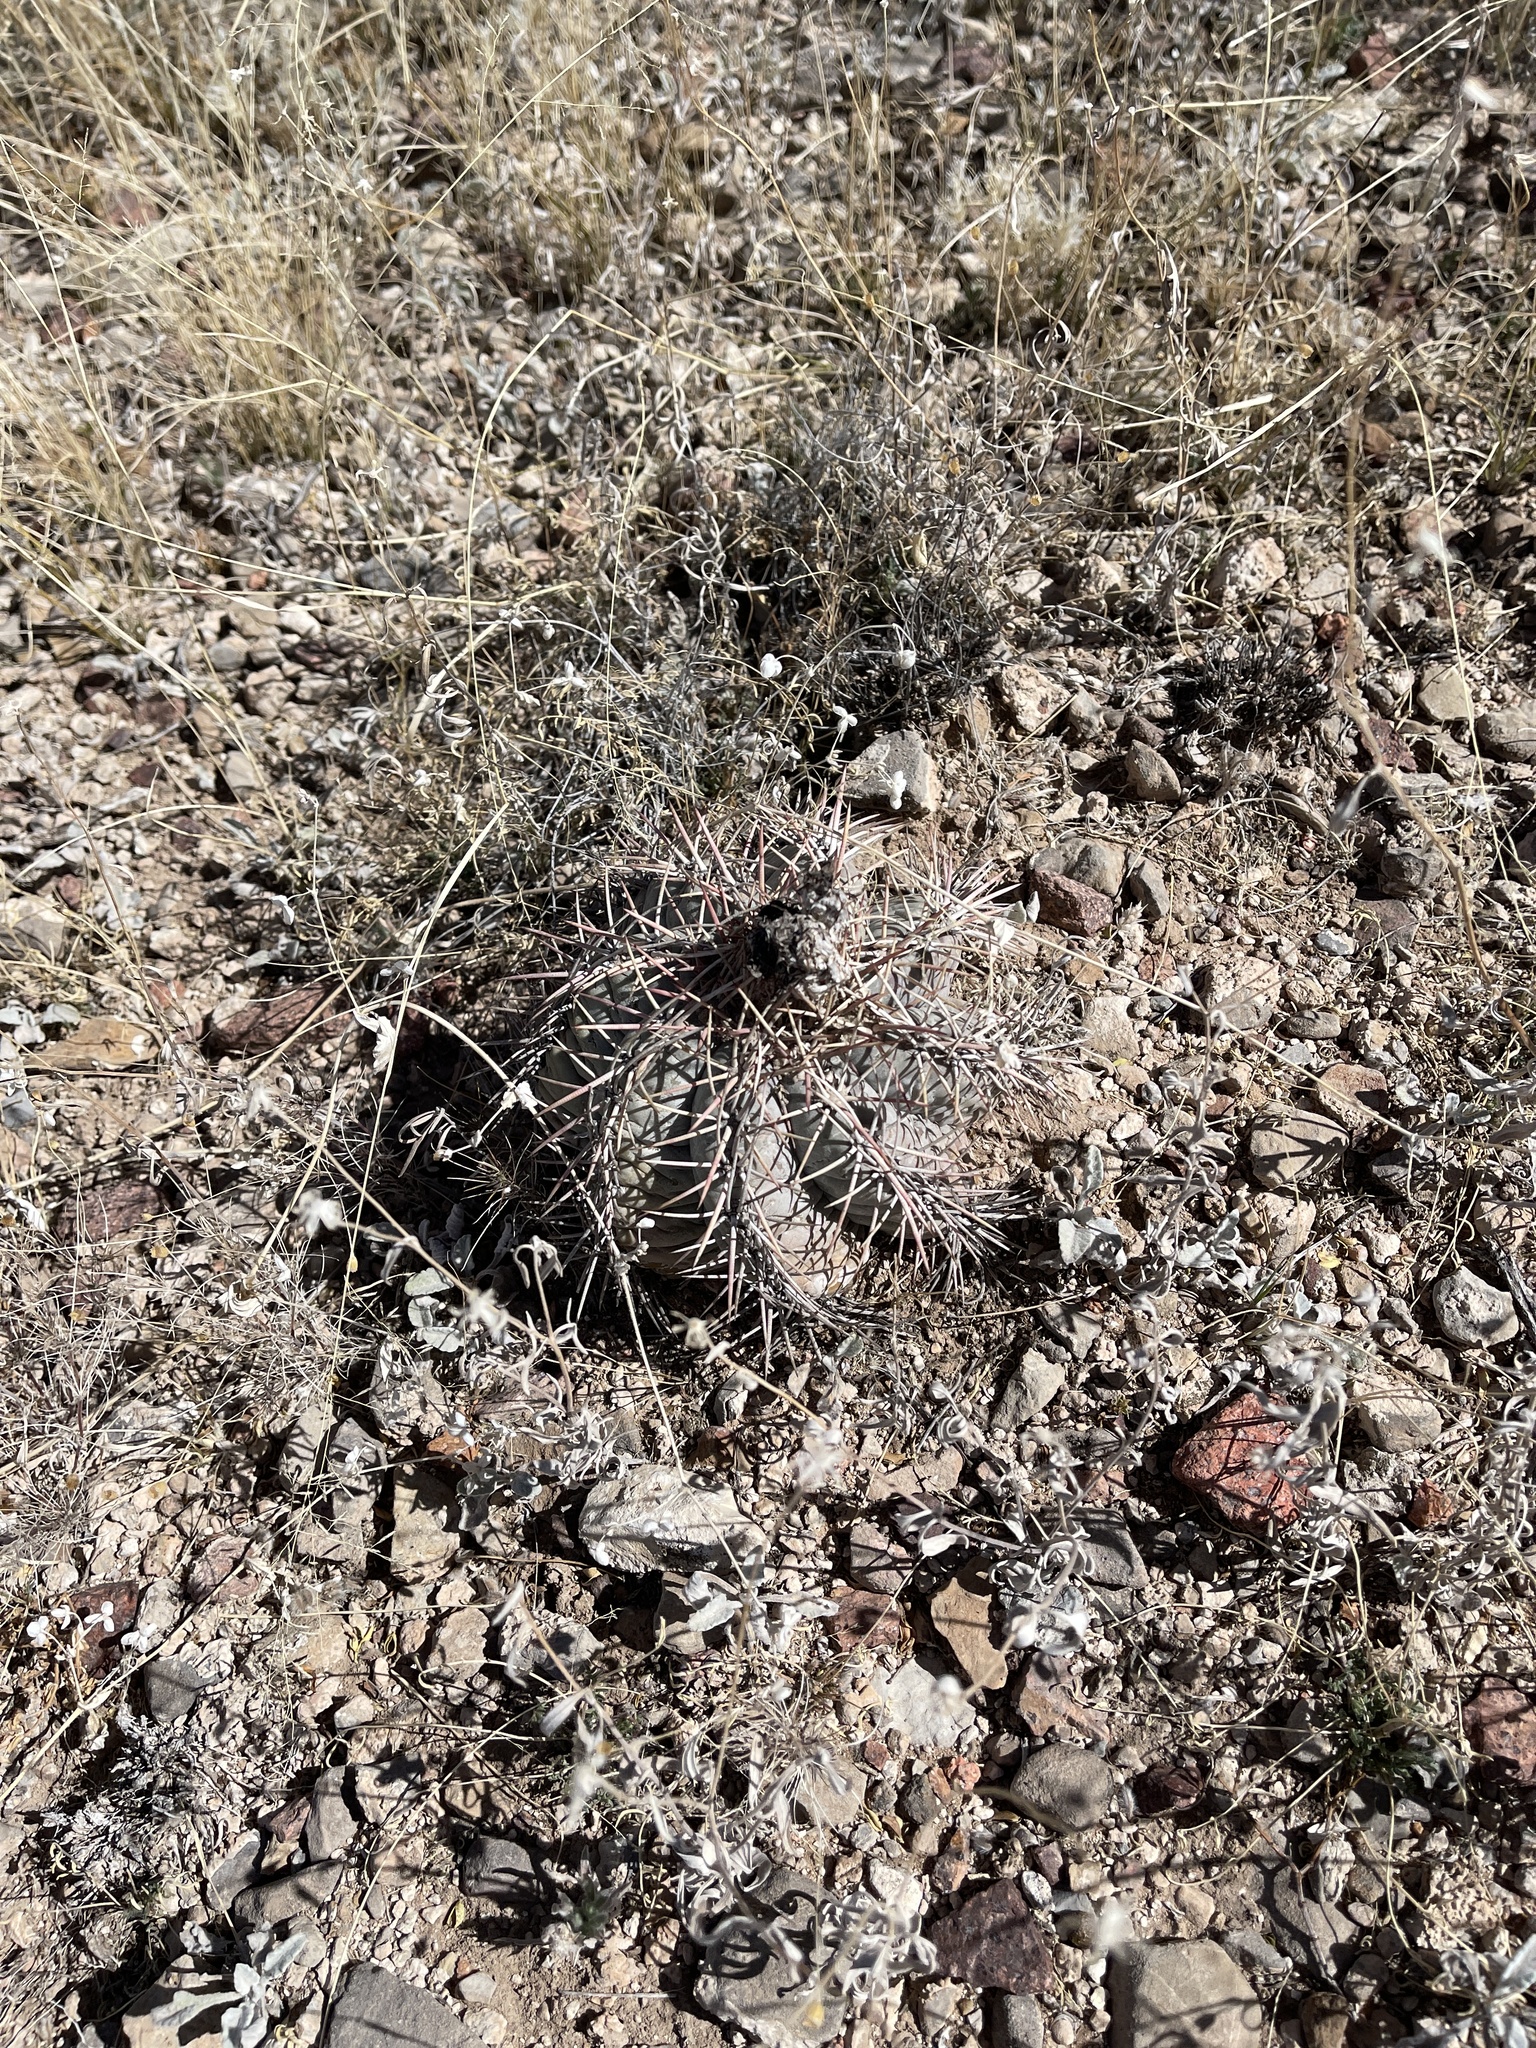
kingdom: Plantae
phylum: Tracheophyta
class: Magnoliopsida
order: Caryophyllales
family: Cactaceae
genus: Echinocactus
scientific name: Echinocactus horizonthalonius
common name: Devilshead
